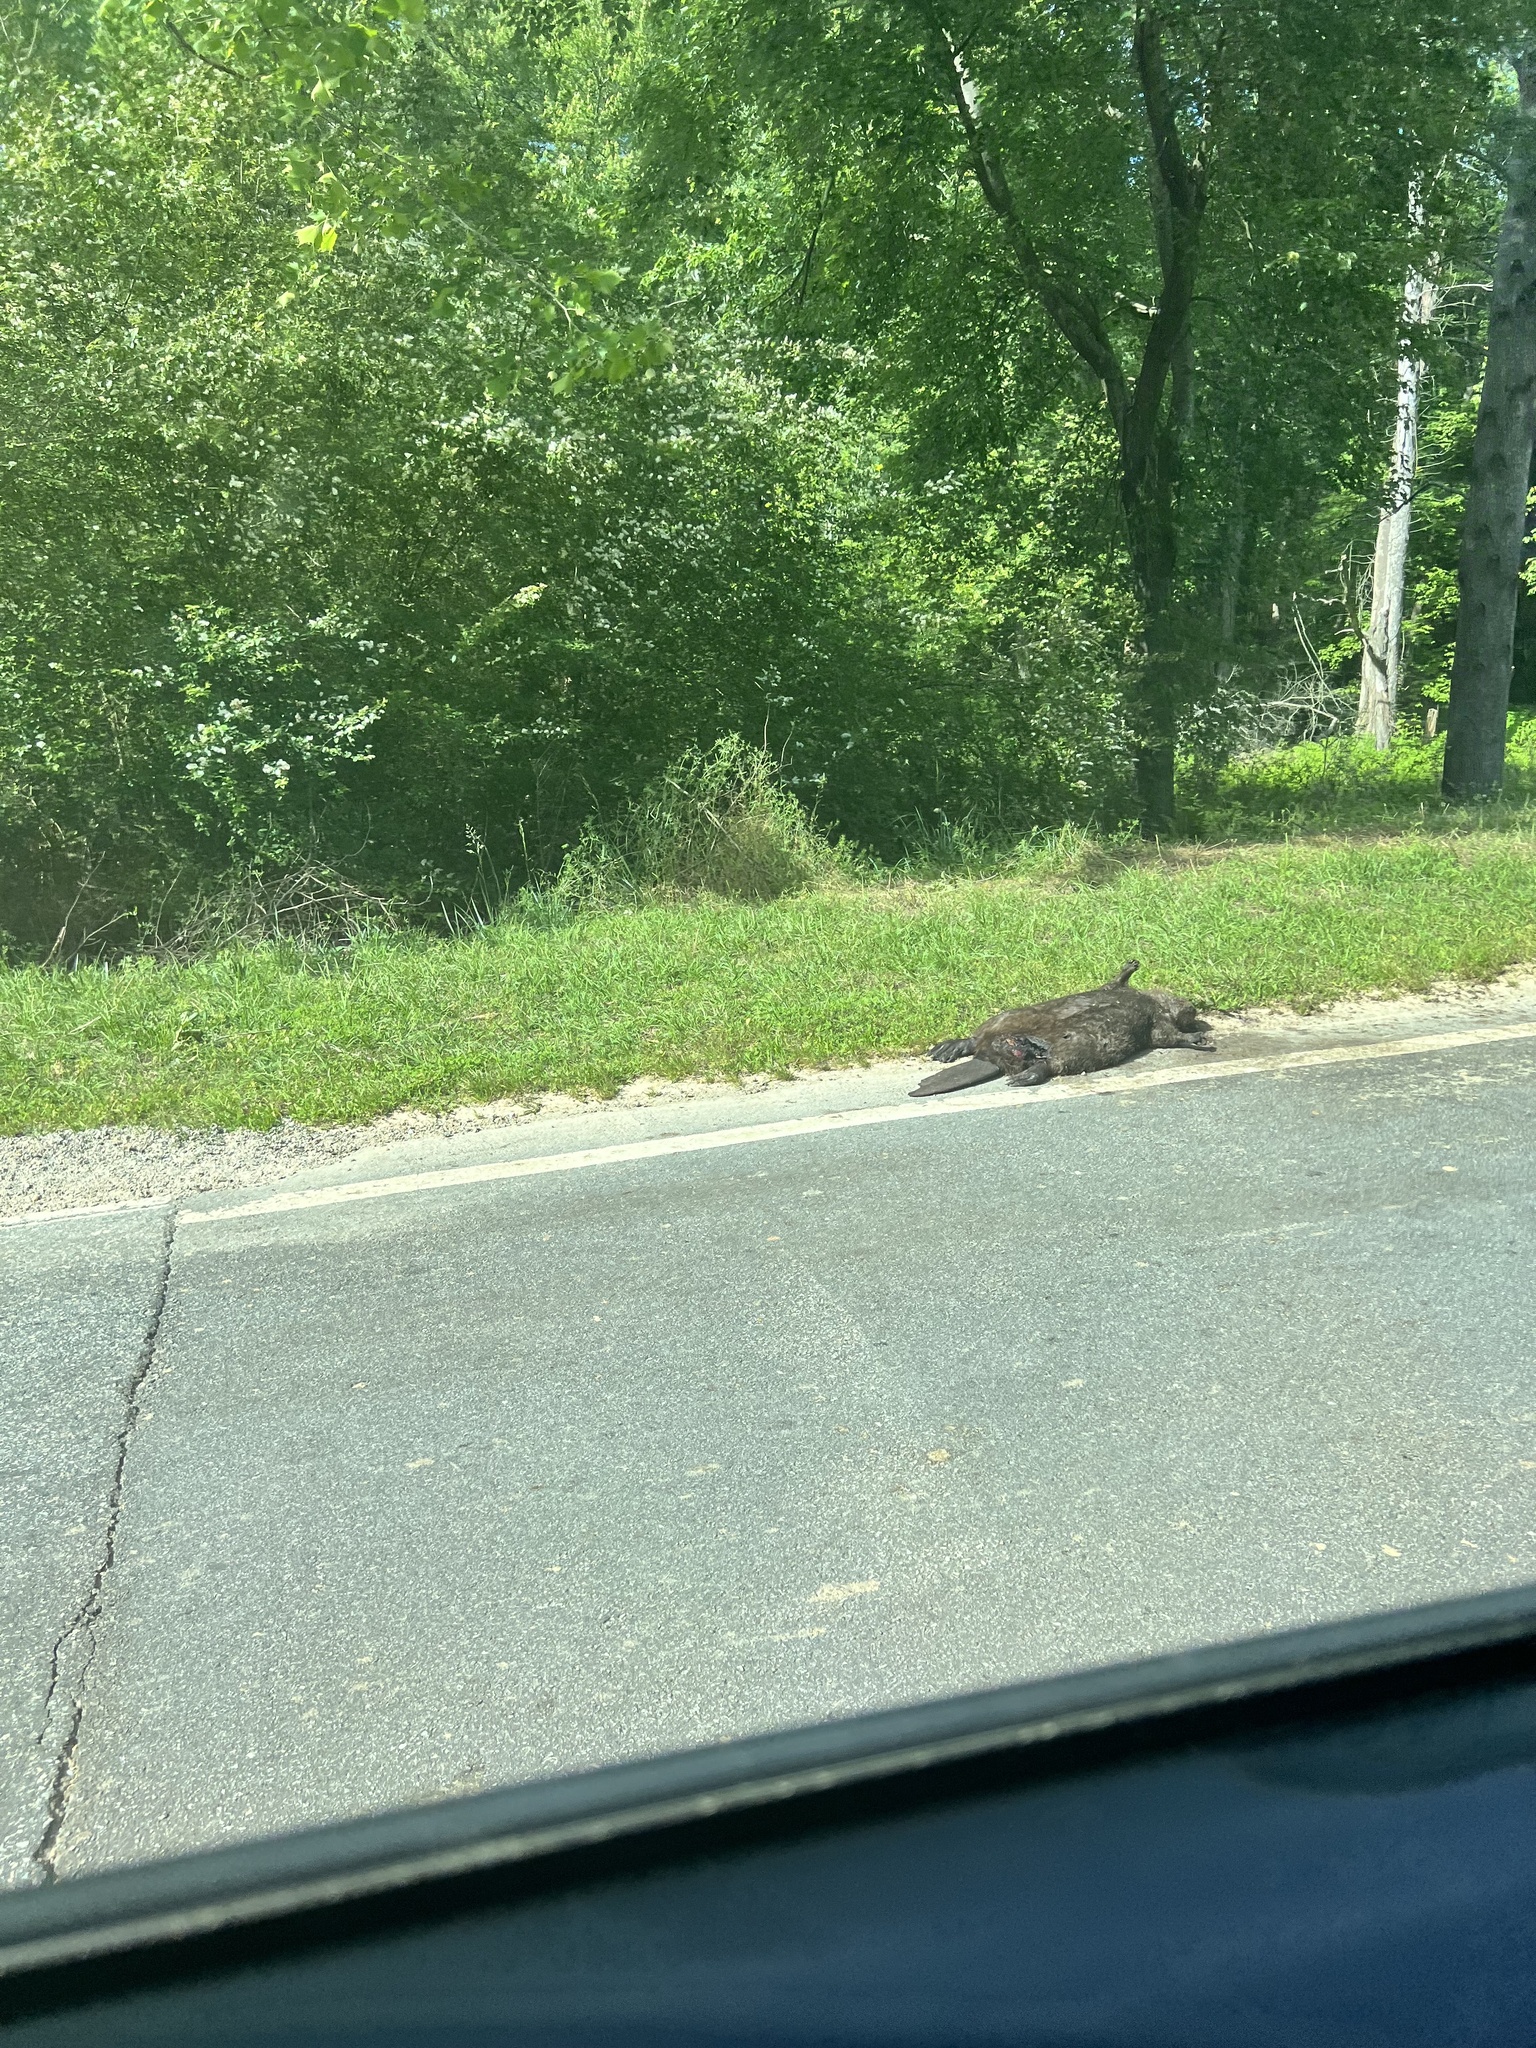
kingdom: Animalia
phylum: Chordata
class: Mammalia
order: Rodentia
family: Castoridae
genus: Castor
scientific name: Castor canadensis
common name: American beaver
